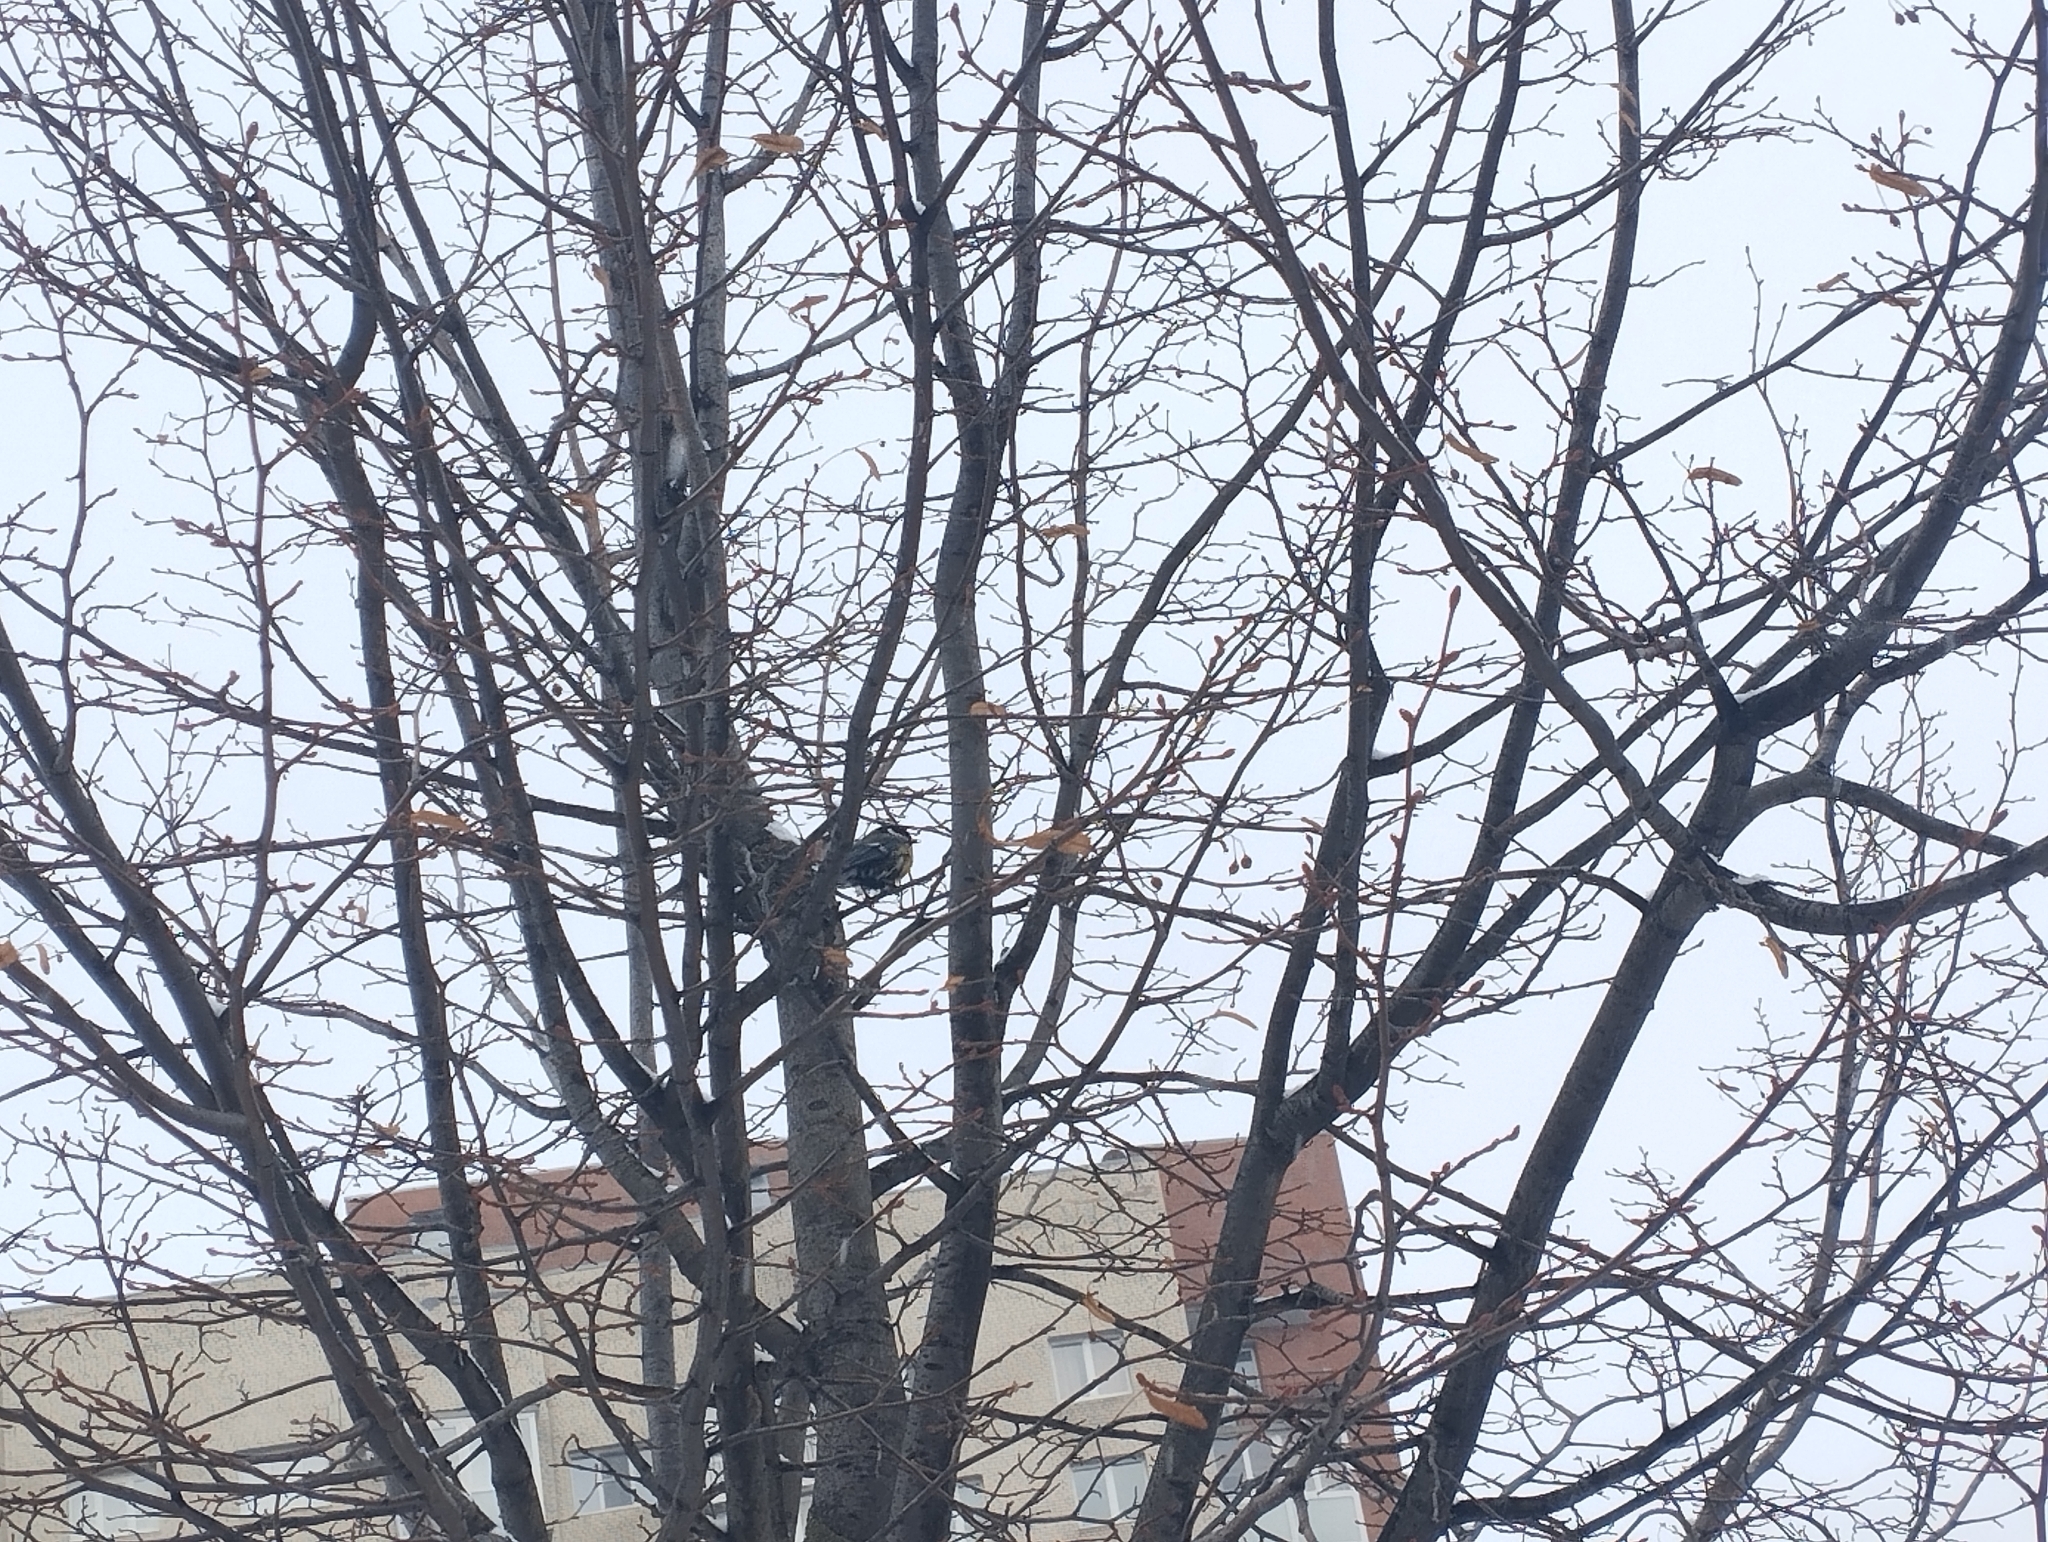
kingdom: Animalia
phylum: Chordata
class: Aves
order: Passeriformes
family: Paridae
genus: Parus
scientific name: Parus major
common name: Great tit
